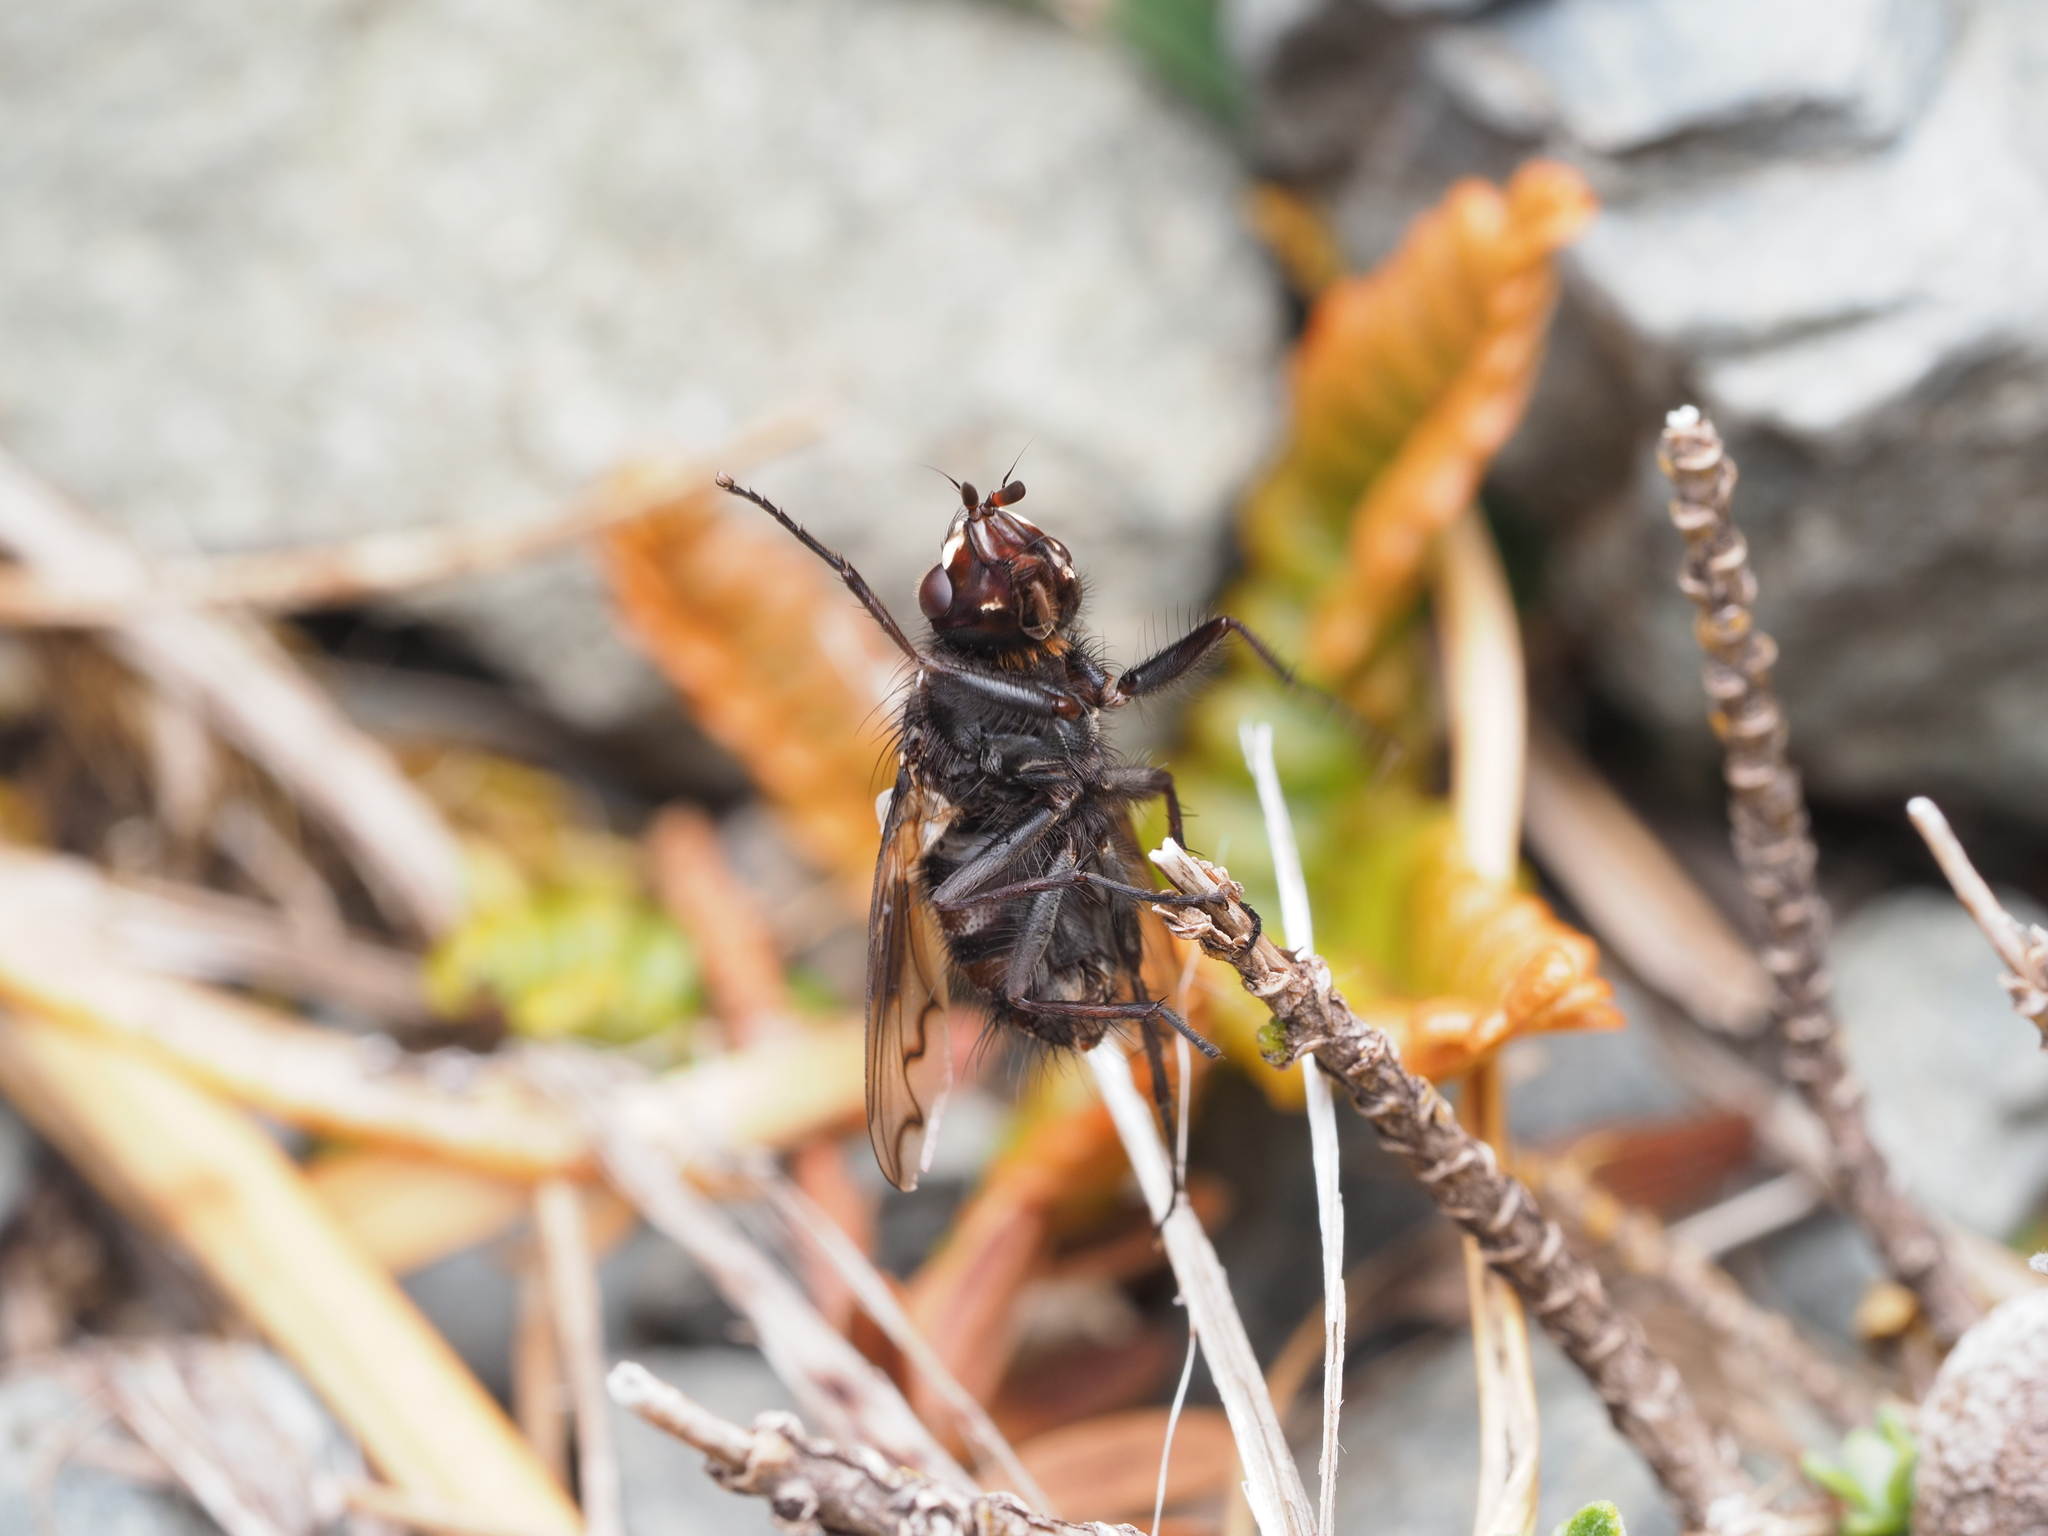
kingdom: Animalia
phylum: Arthropoda
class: Insecta
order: Diptera
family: Tachinidae
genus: Graphotachina
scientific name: Graphotachina sinuata
